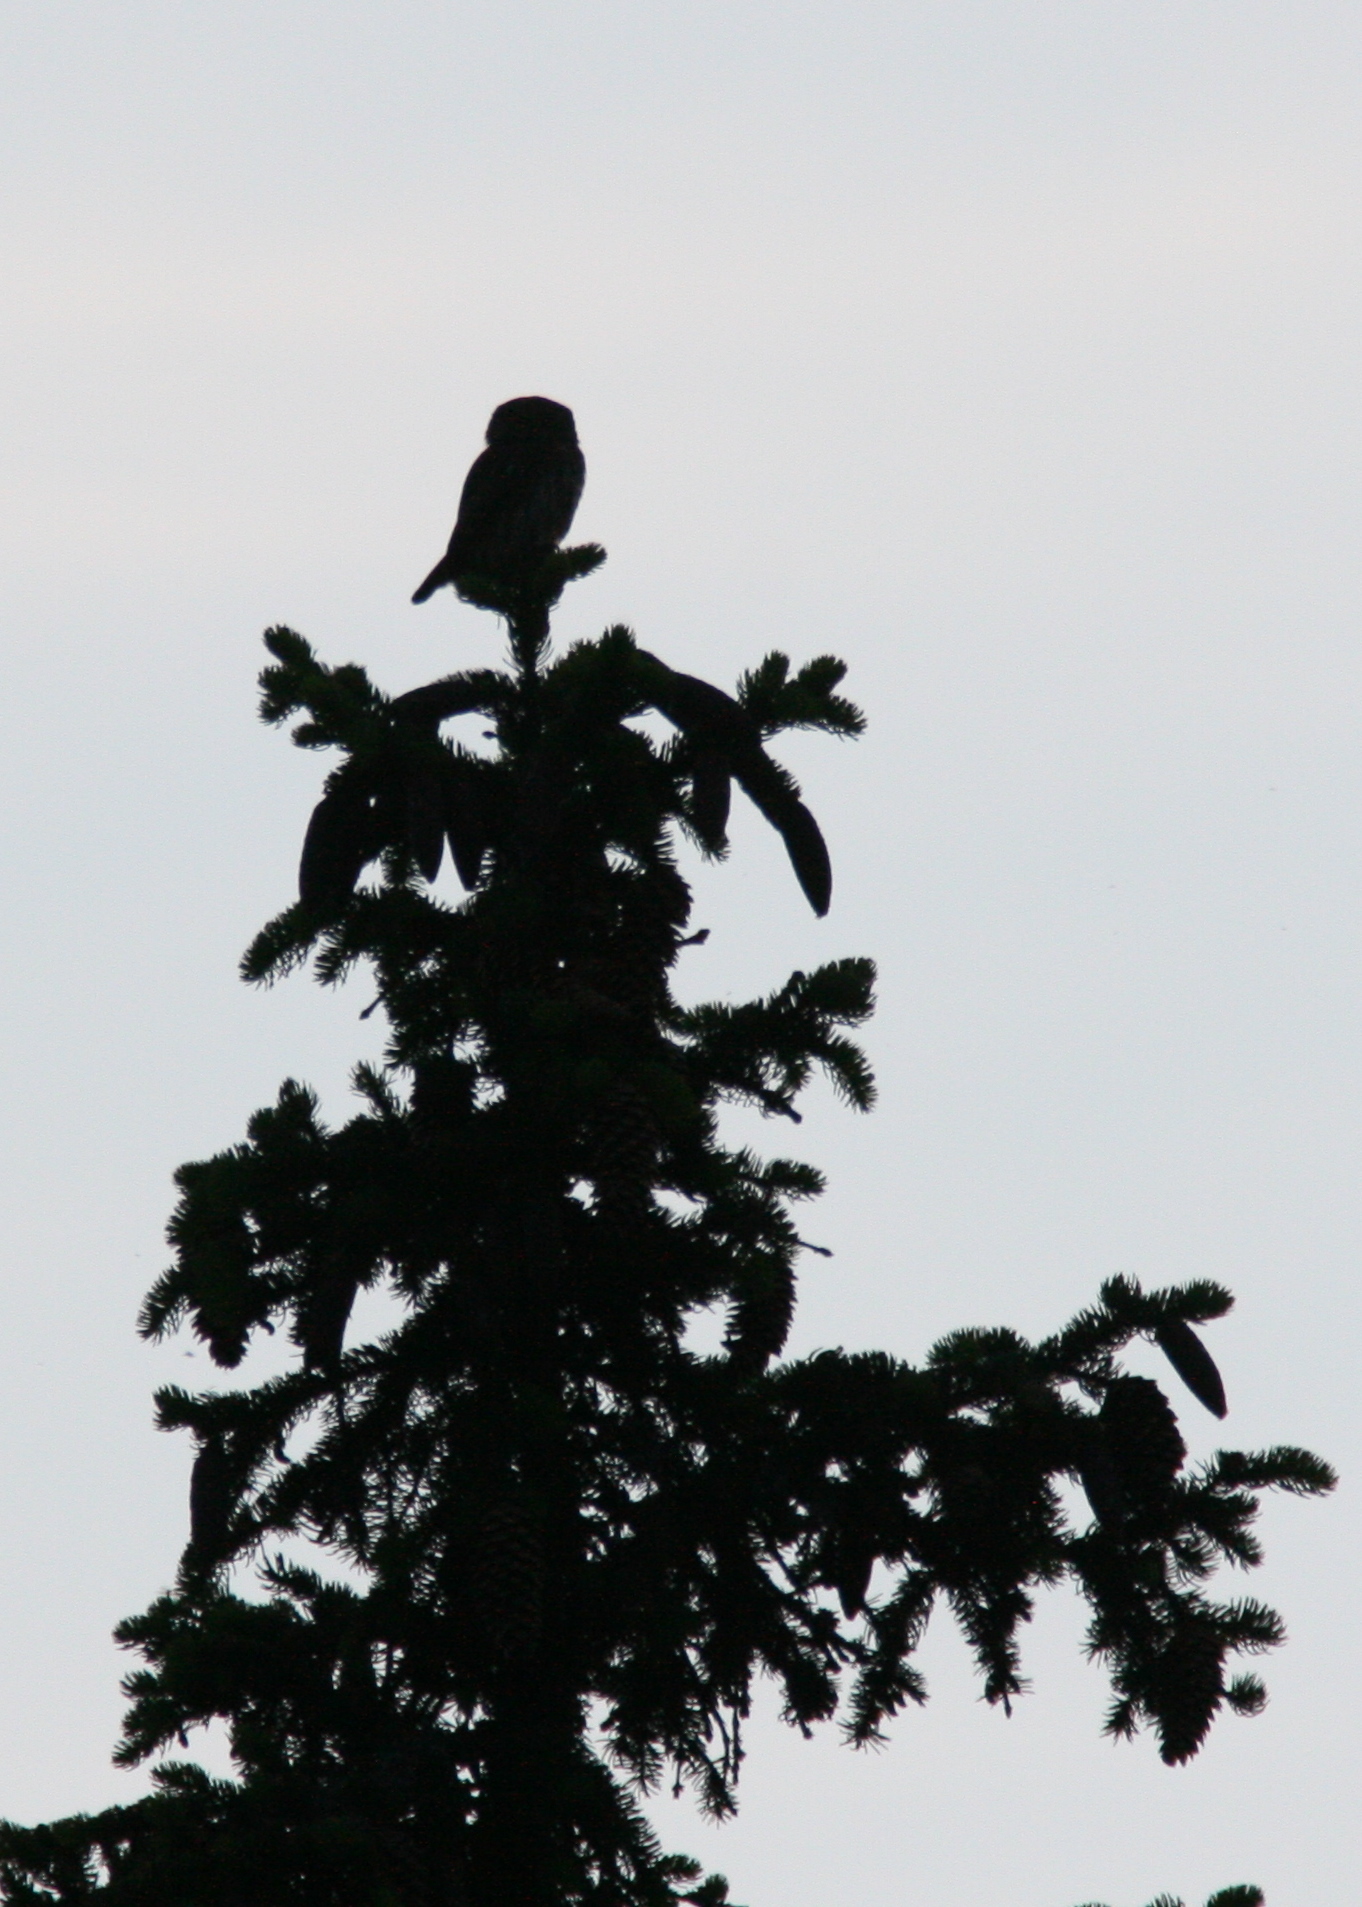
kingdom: Animalia
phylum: Chordata
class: Aves
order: Strigiformes
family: Strigidae
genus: Glaucidium
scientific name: Glaucidium passerinum
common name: Eurasian pygmy owl
